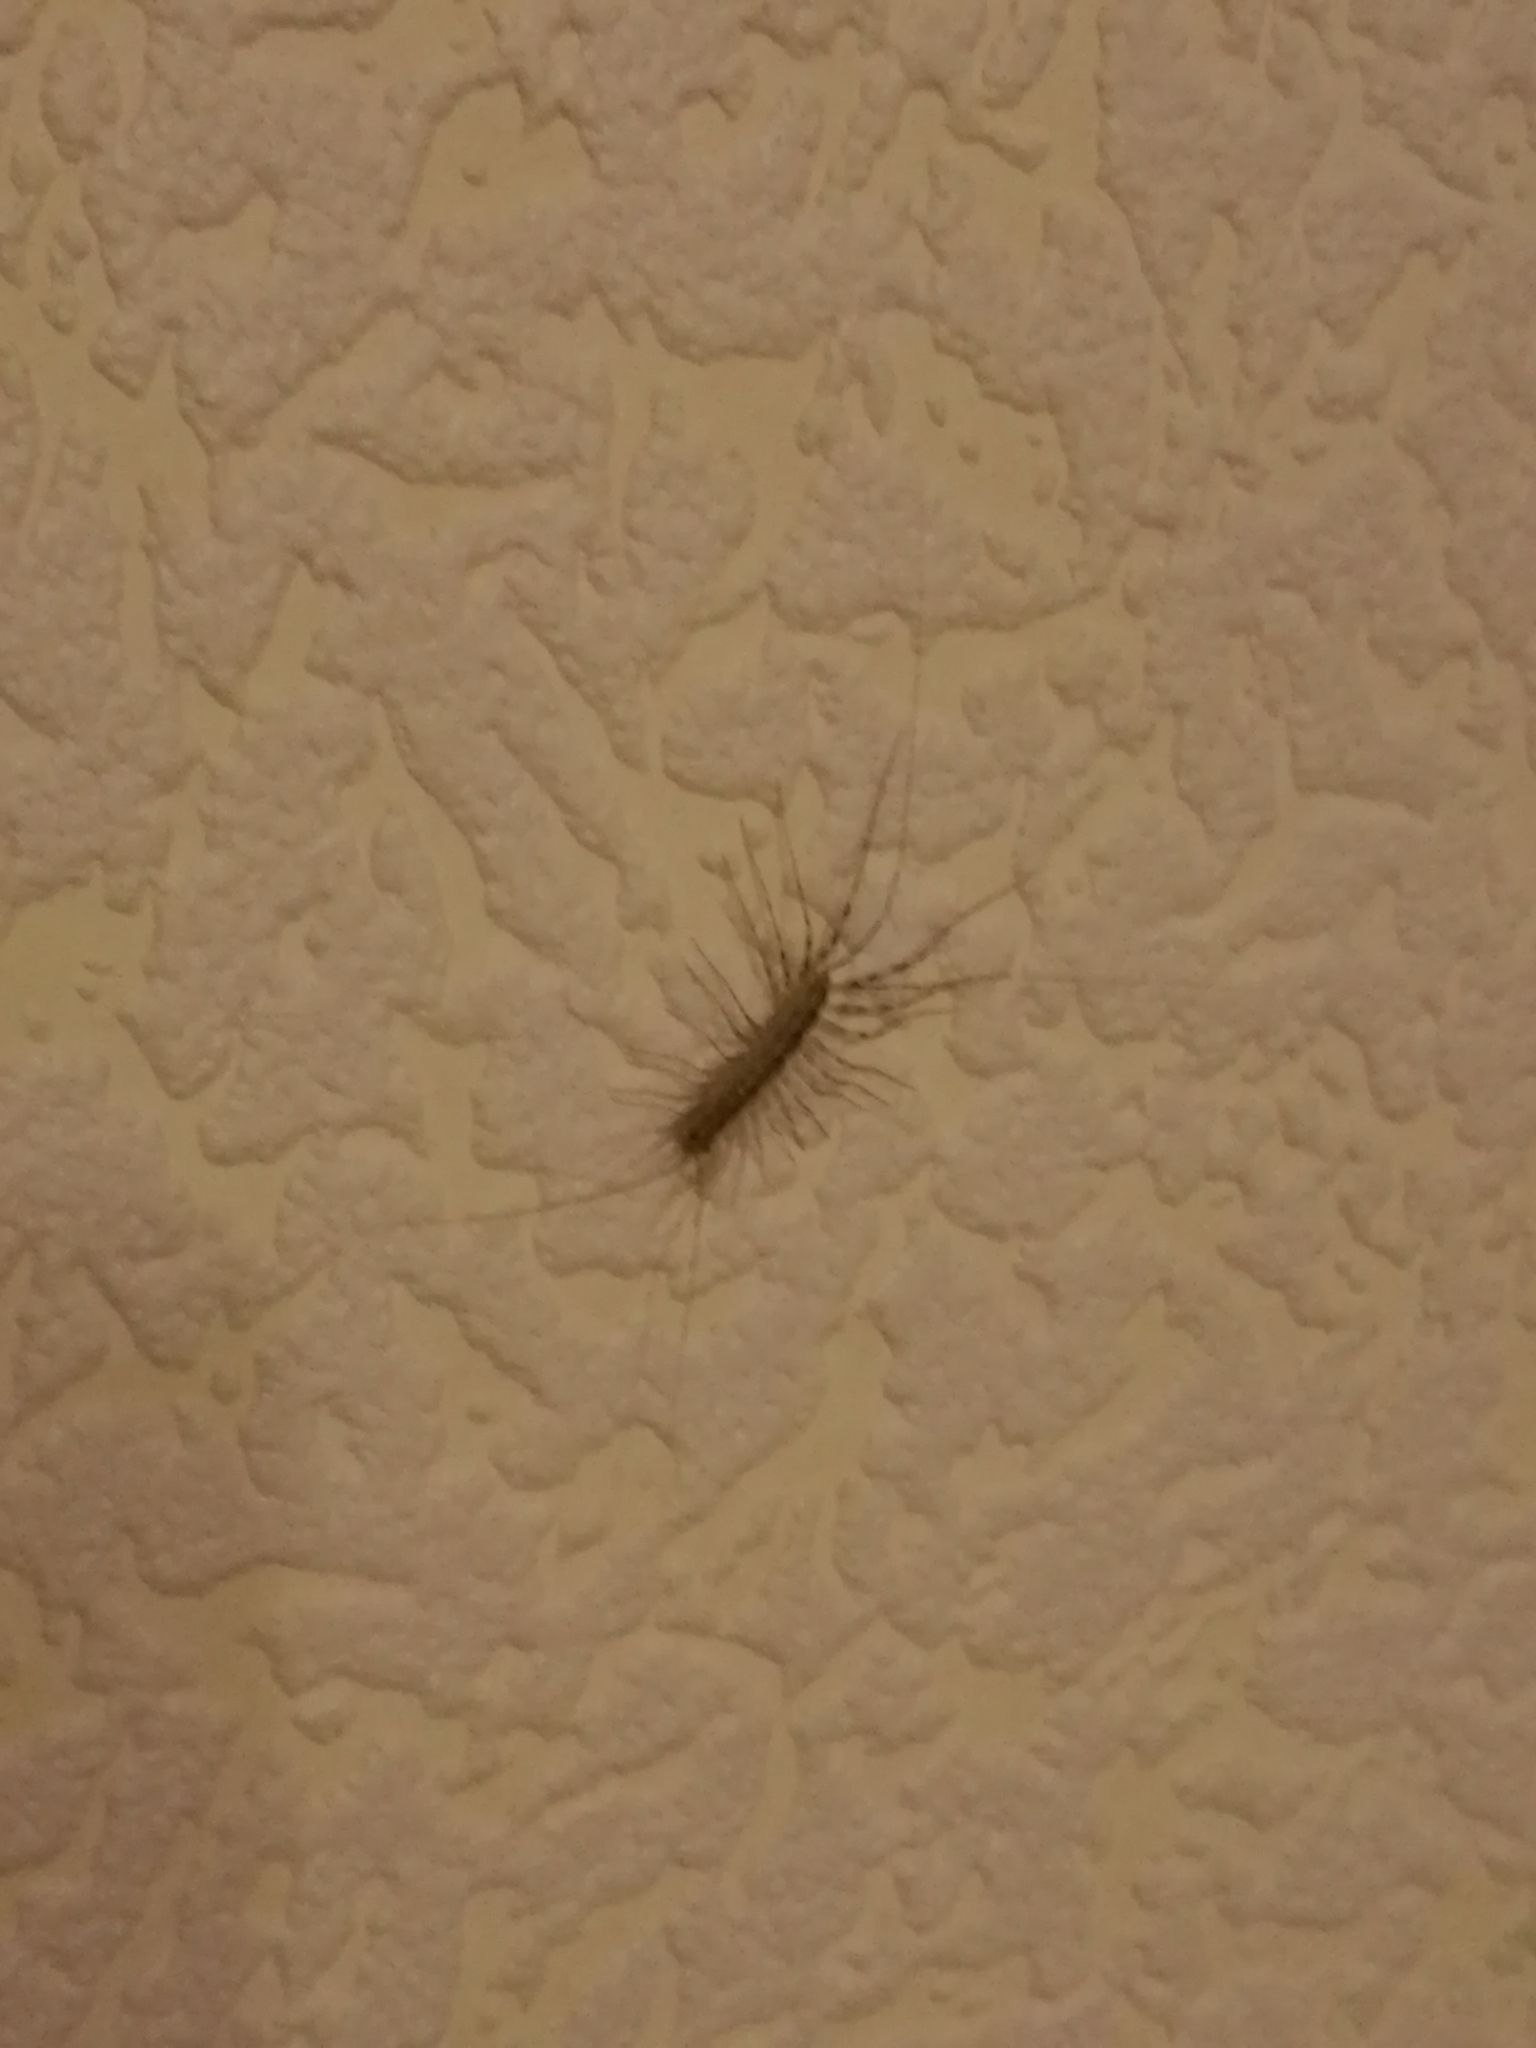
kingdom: Animalia
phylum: Arthropoda
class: Chilopoda
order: Scutigeromorpha
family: Scutigeridae
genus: Scutigera
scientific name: Scutigera coleoptrata
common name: House centipede
